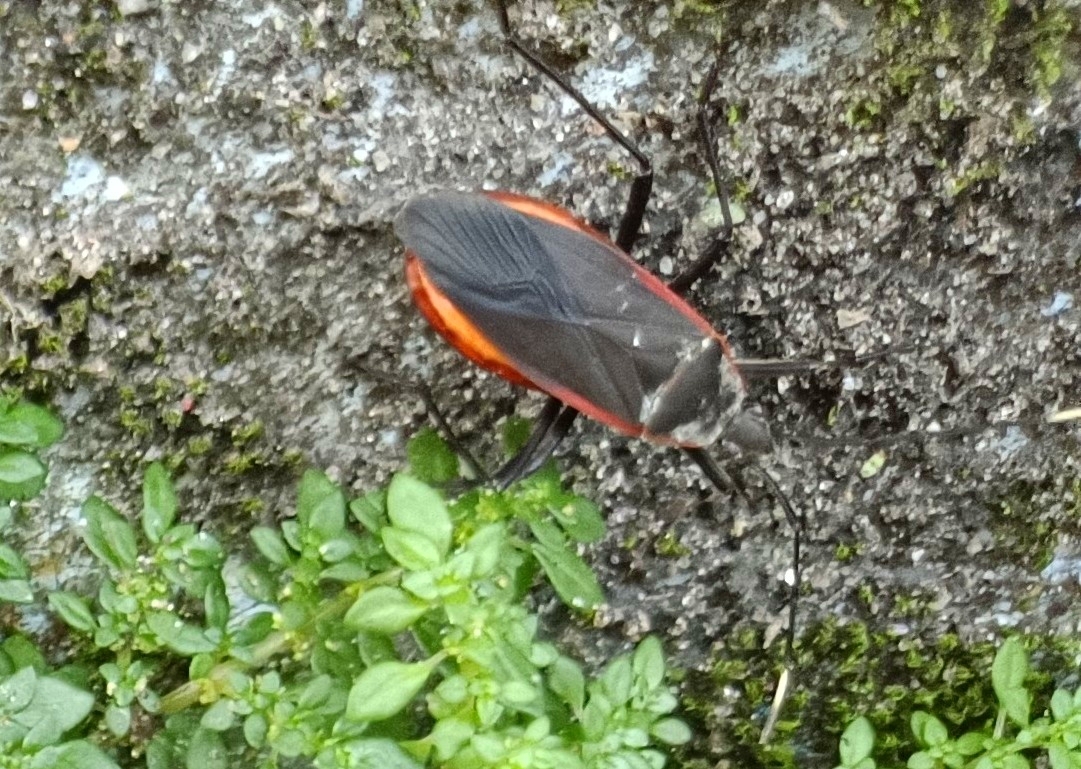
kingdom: Animalia
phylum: Arthropoda
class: Insecta
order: Hemiptera
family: Pyrrhocoridae
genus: Melamphaus
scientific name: Melamphaus
